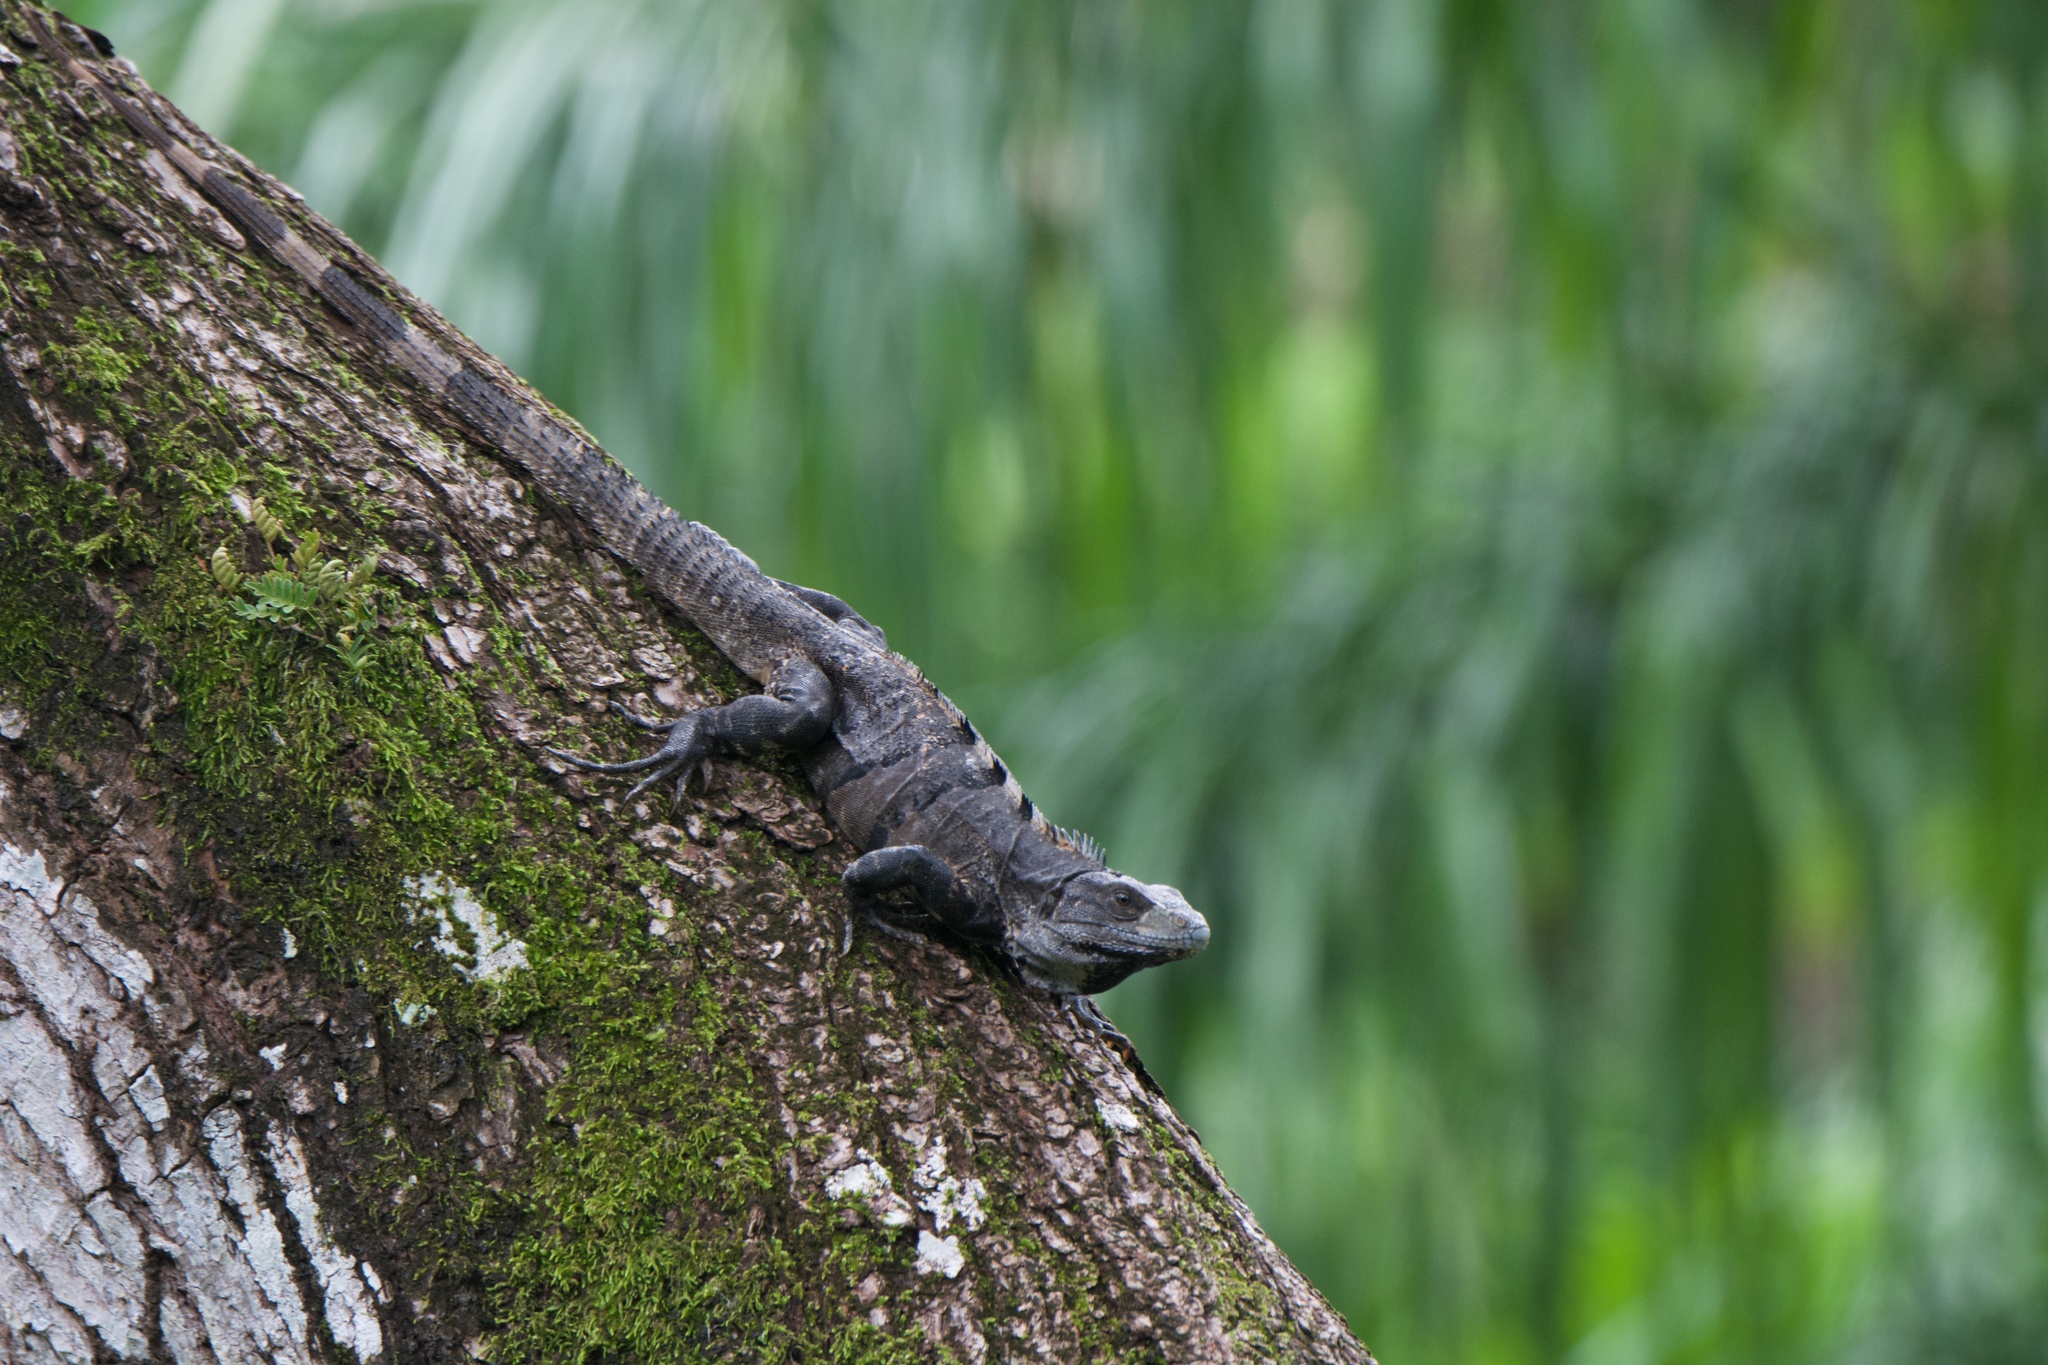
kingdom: Animalia
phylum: Chordata
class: Squamata
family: Iguanidae
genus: Ctenosaura
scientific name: Ctenosaura similis
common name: Black spiny-tailed iguana
